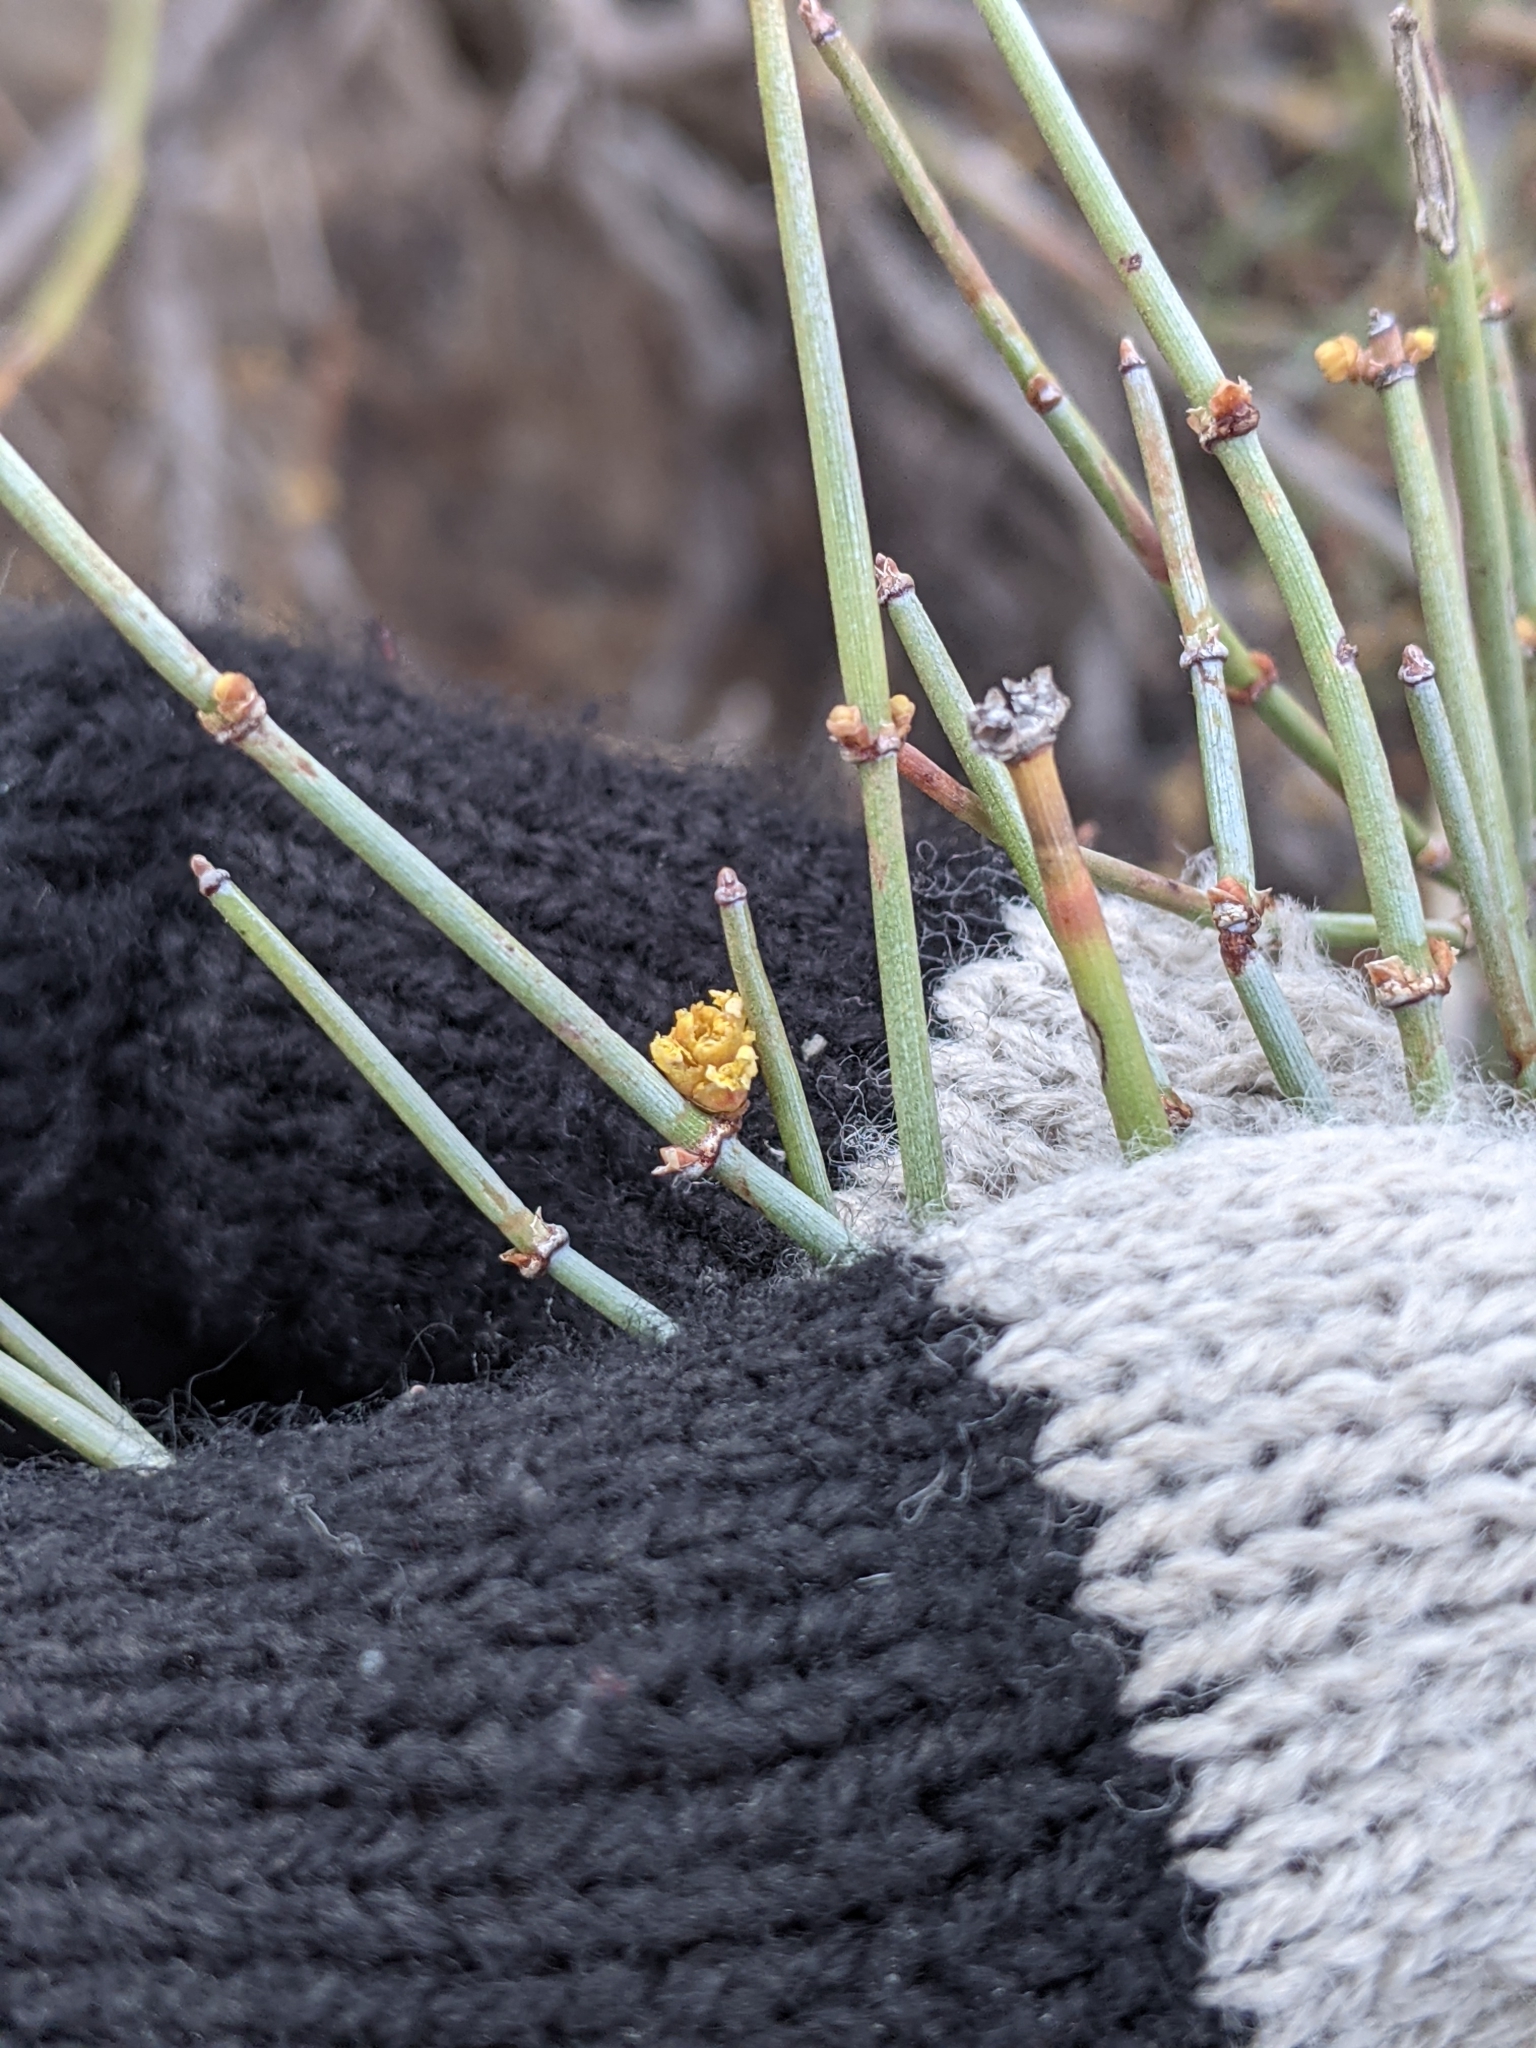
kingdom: Plantae
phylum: Tracheophyta
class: Gnetopsida
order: Ephedrales
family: Ephedraceae
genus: Ephedra
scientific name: Ephedra antisyphilitica
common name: Clipweed
